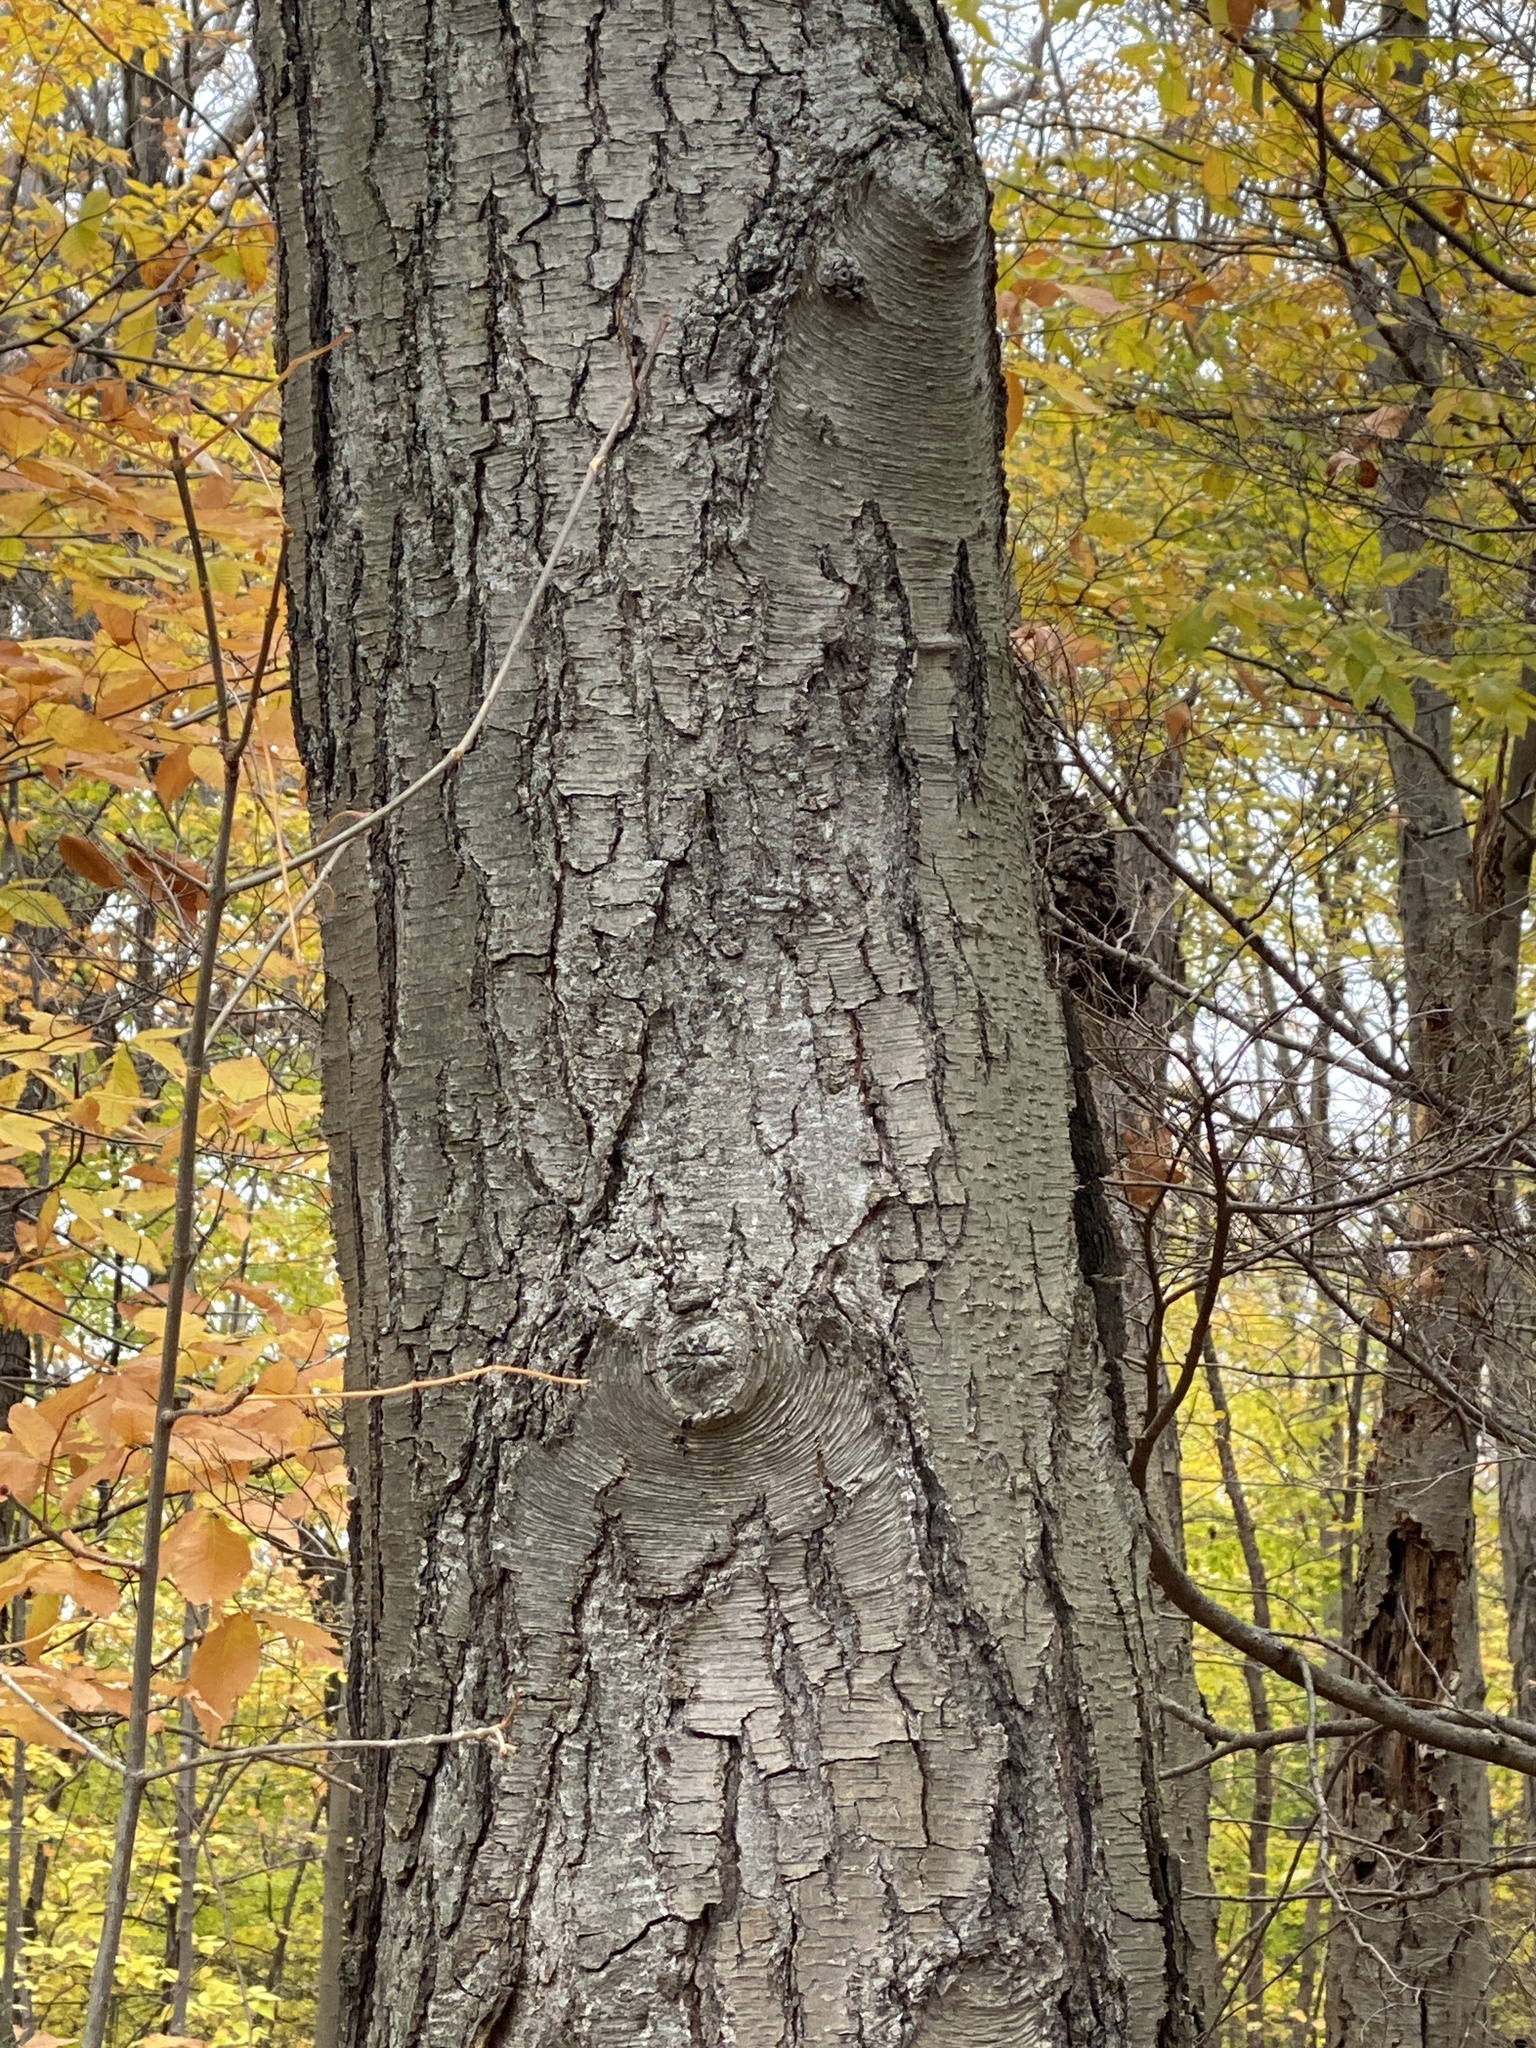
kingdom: Plantae
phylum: Tracheophyta
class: Magnoliopsida
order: Fagales
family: Betulaceae
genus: Betula
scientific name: Betula lenta
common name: Black birch
